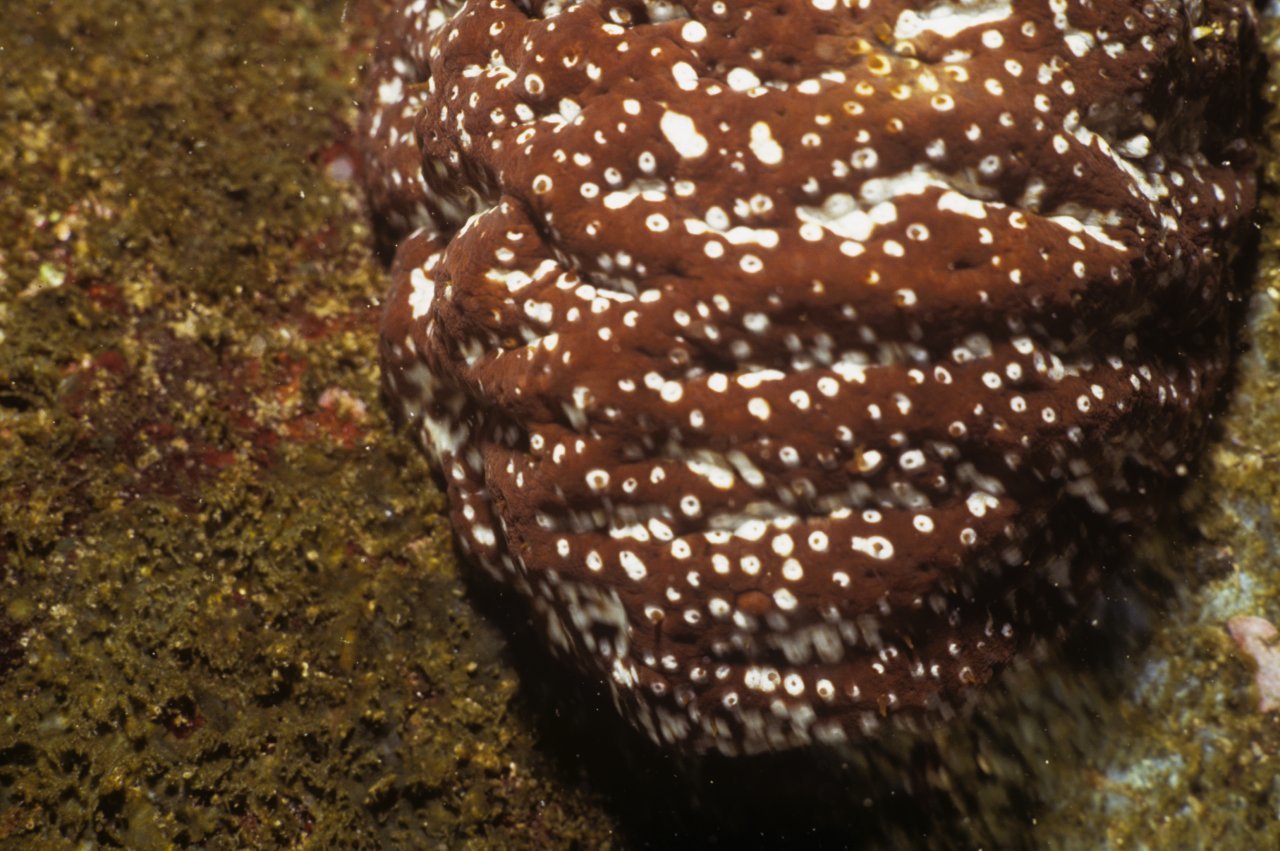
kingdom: Animalia
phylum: Echinodermata
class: Holothuroidea
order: Holothuriida
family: Holothuriidae
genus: Actinopyga
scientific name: Actinopyga varians
